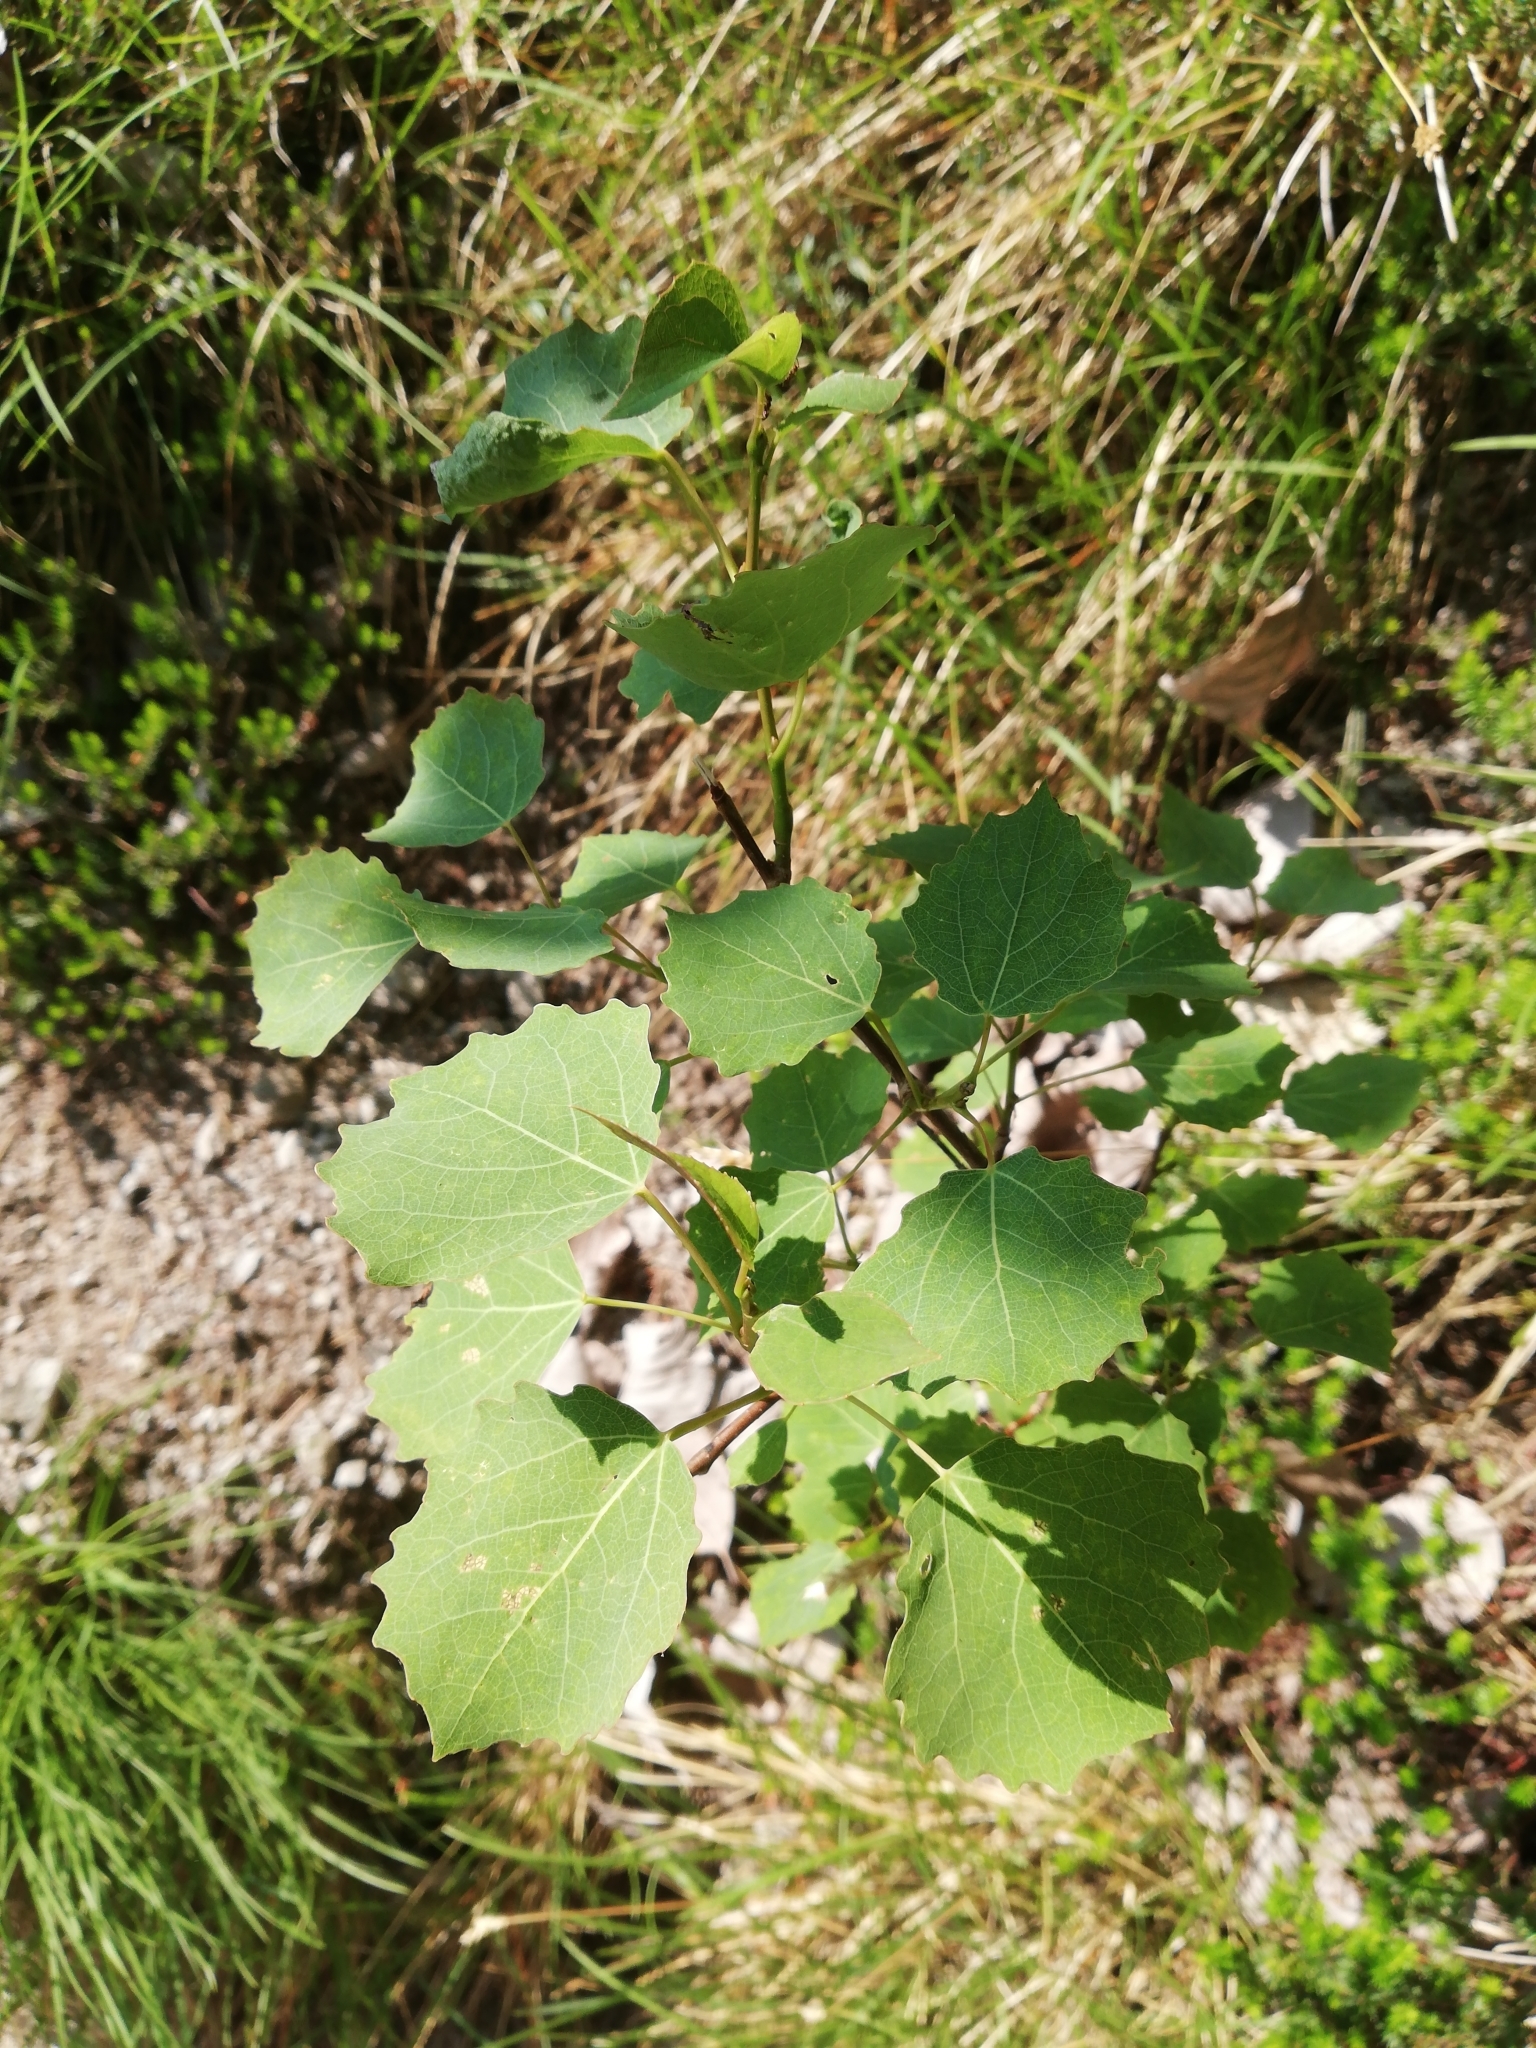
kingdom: Plantae
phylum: Tracheophyta
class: Magnoliopsida
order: Malpighiales
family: Salicaceae
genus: Populus
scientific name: Populus tremula
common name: European aspen
